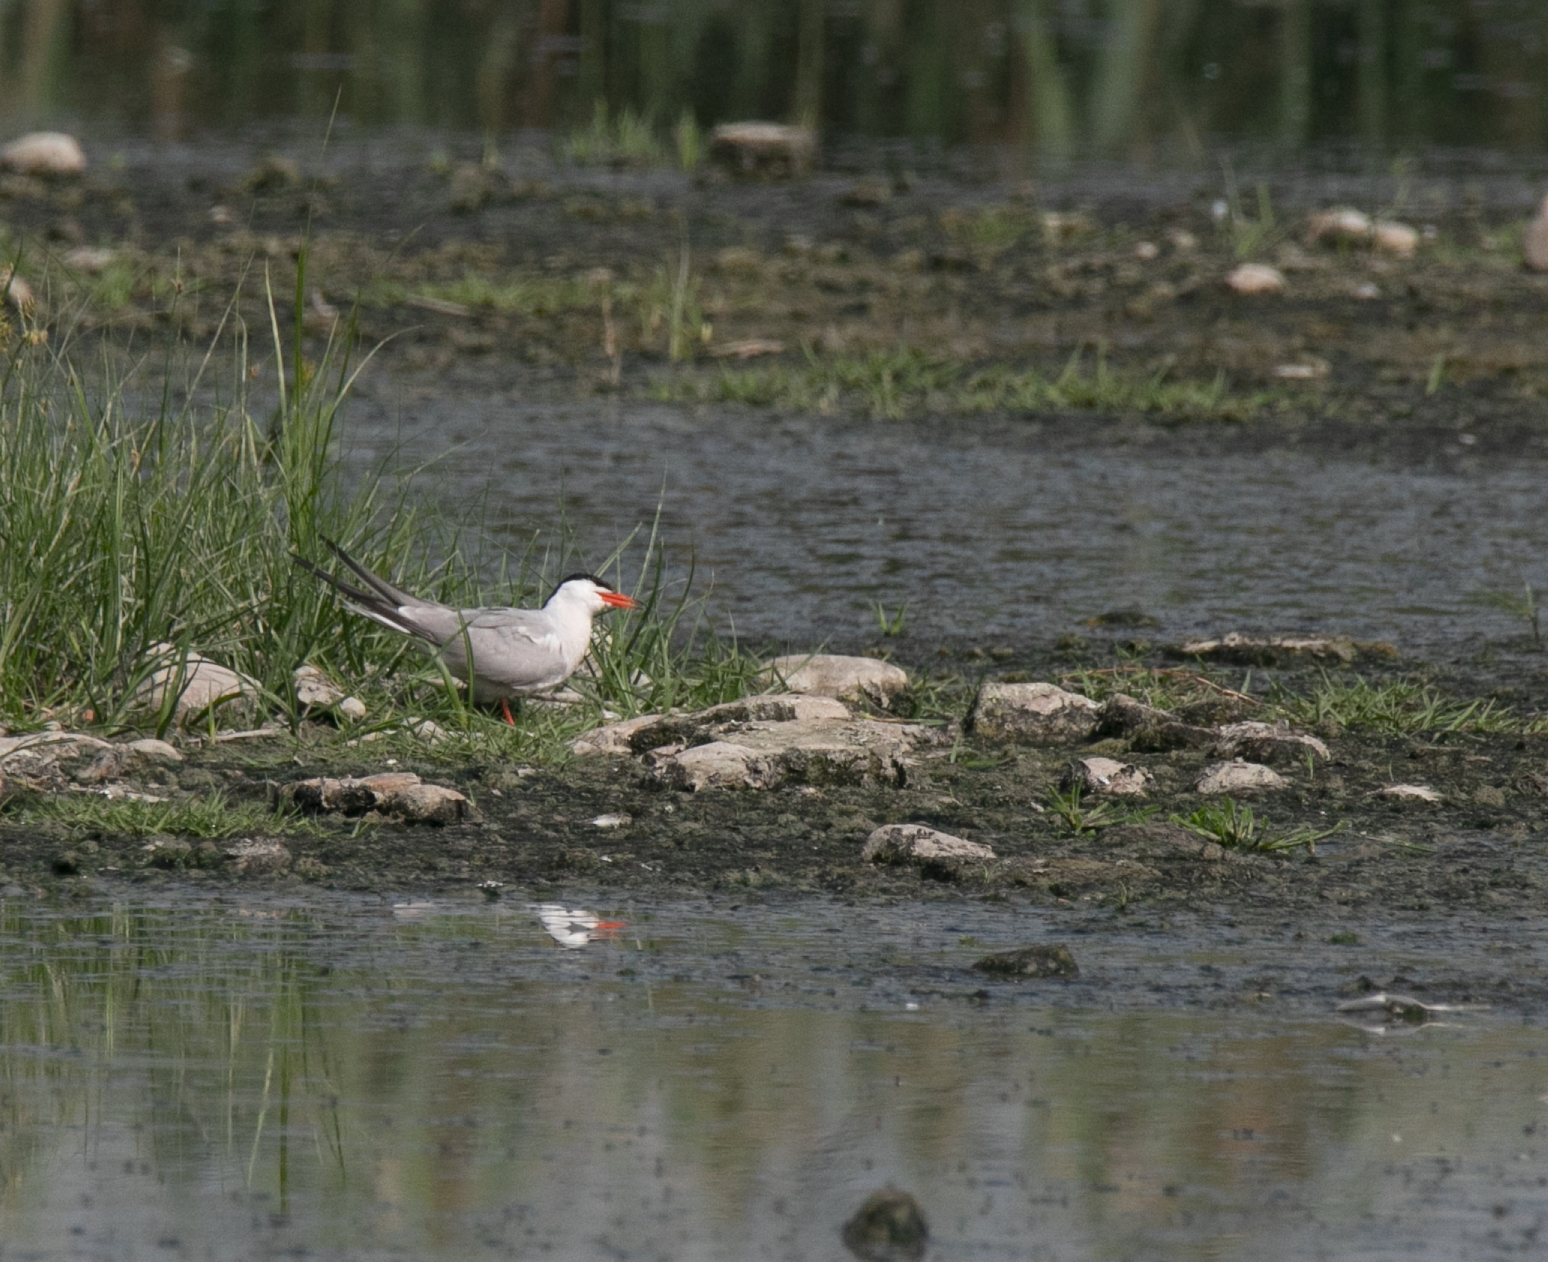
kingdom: Animalia
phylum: Chordata
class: Aves
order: Charadriiformes
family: Laridae
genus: Sterna
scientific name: Sterna hirundo
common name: Common tern
